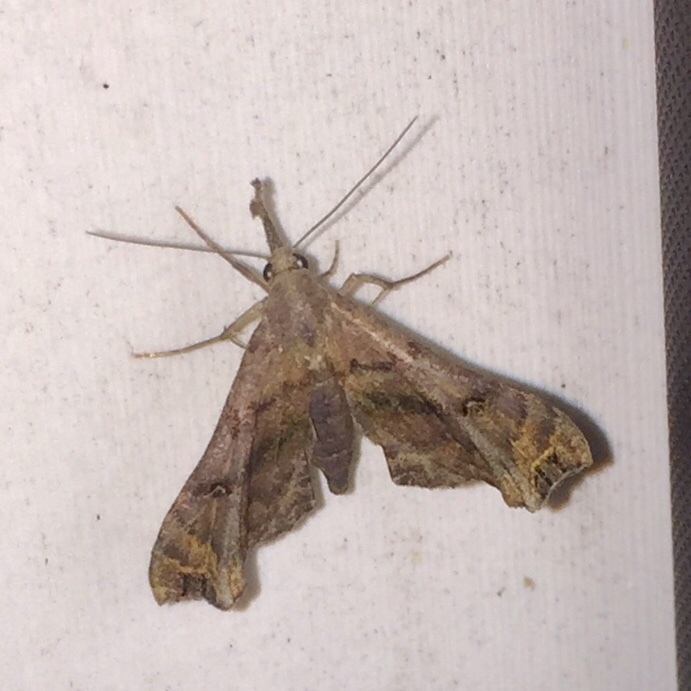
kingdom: Animalia
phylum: Arthropoda
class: Insecta
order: Lepidoptera
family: Erebidae
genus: Palthis
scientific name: Palthis asopialis
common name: Faint-spotted palthis moth
